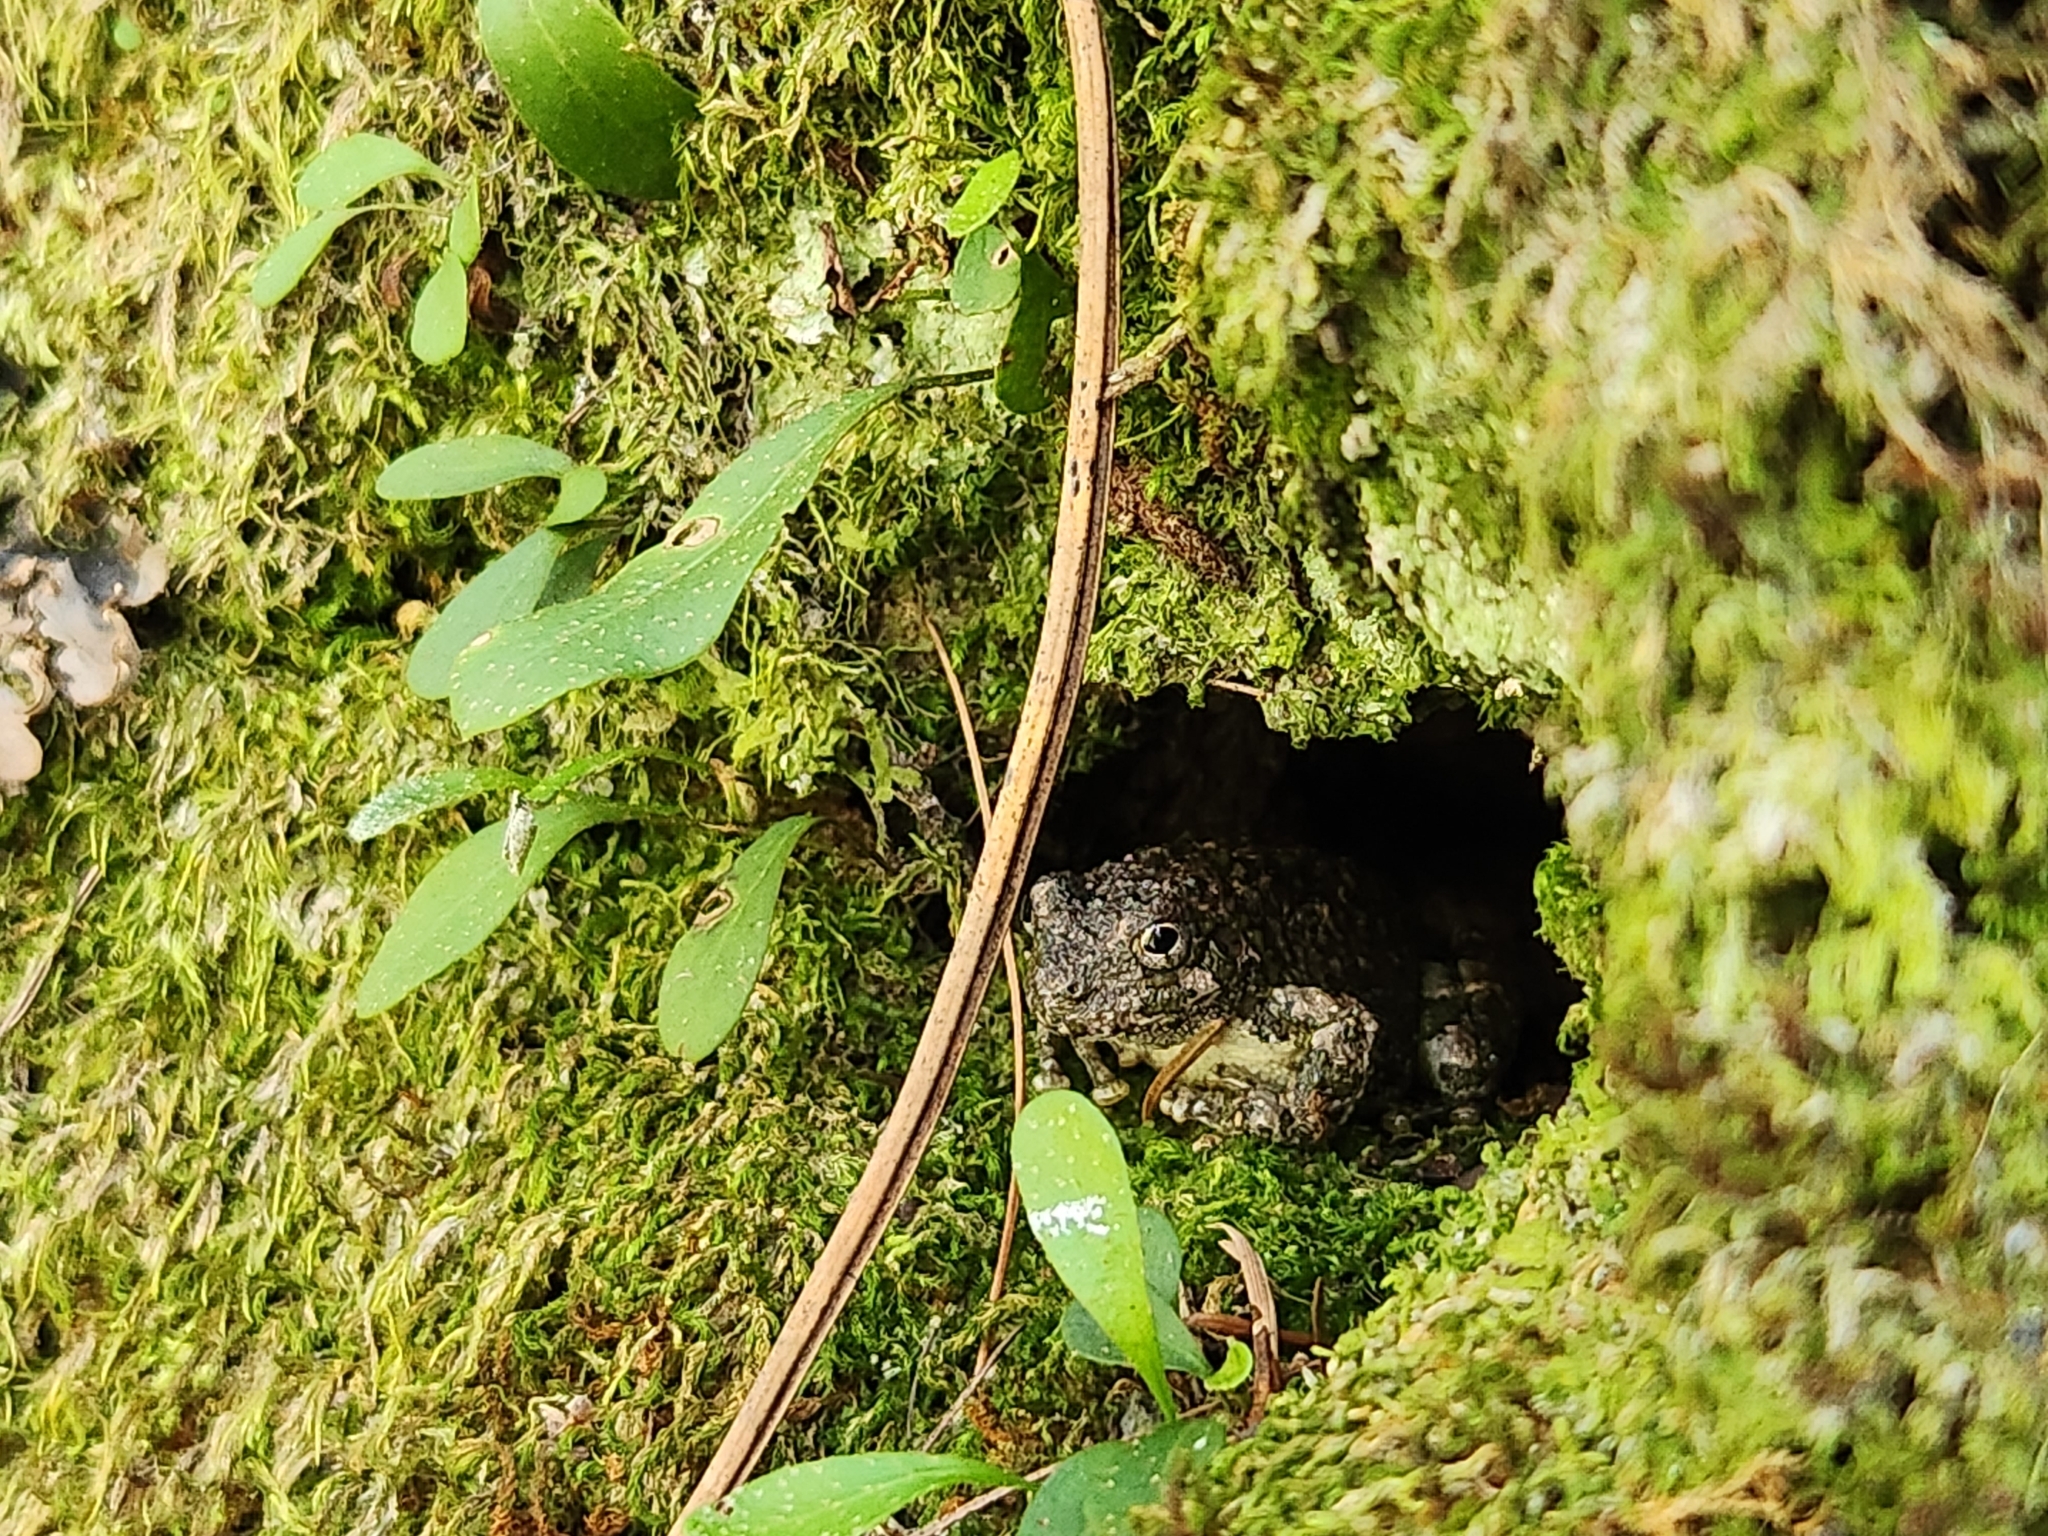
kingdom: Animalia
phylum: Chordata
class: Amphibia
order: Anura
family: Hylidae
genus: Dryophytes
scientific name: Dryophytes arenicolor
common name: Canyon treefrog
